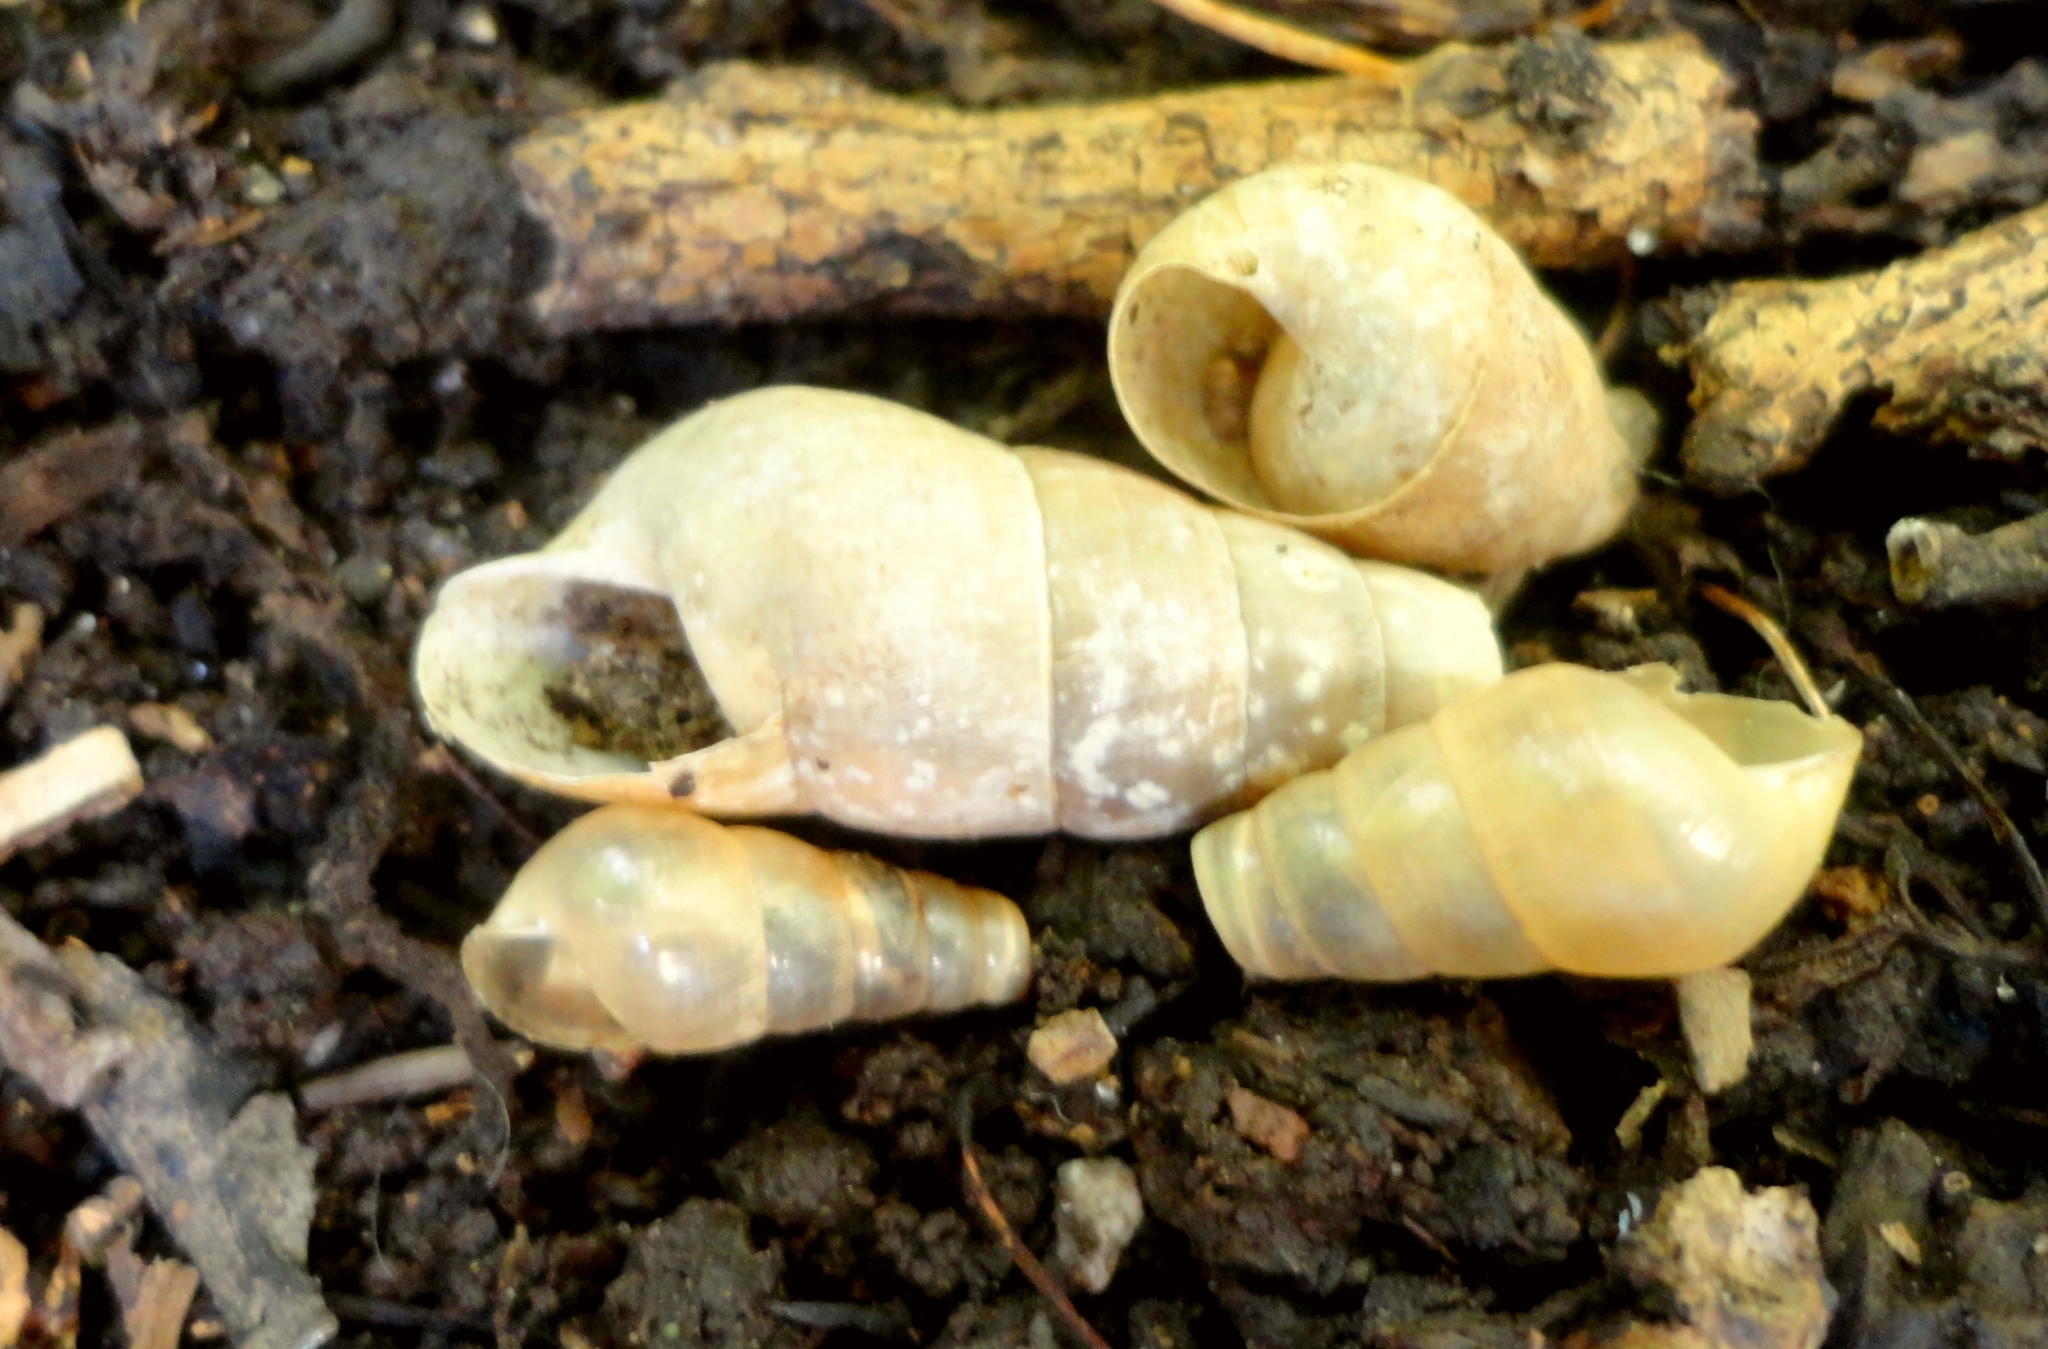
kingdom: Animalia
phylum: Mollusca
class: Gastropoda
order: Stylommatophora
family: Achatinidae
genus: Rumina
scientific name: Rumina decollata
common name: Decollate snail
